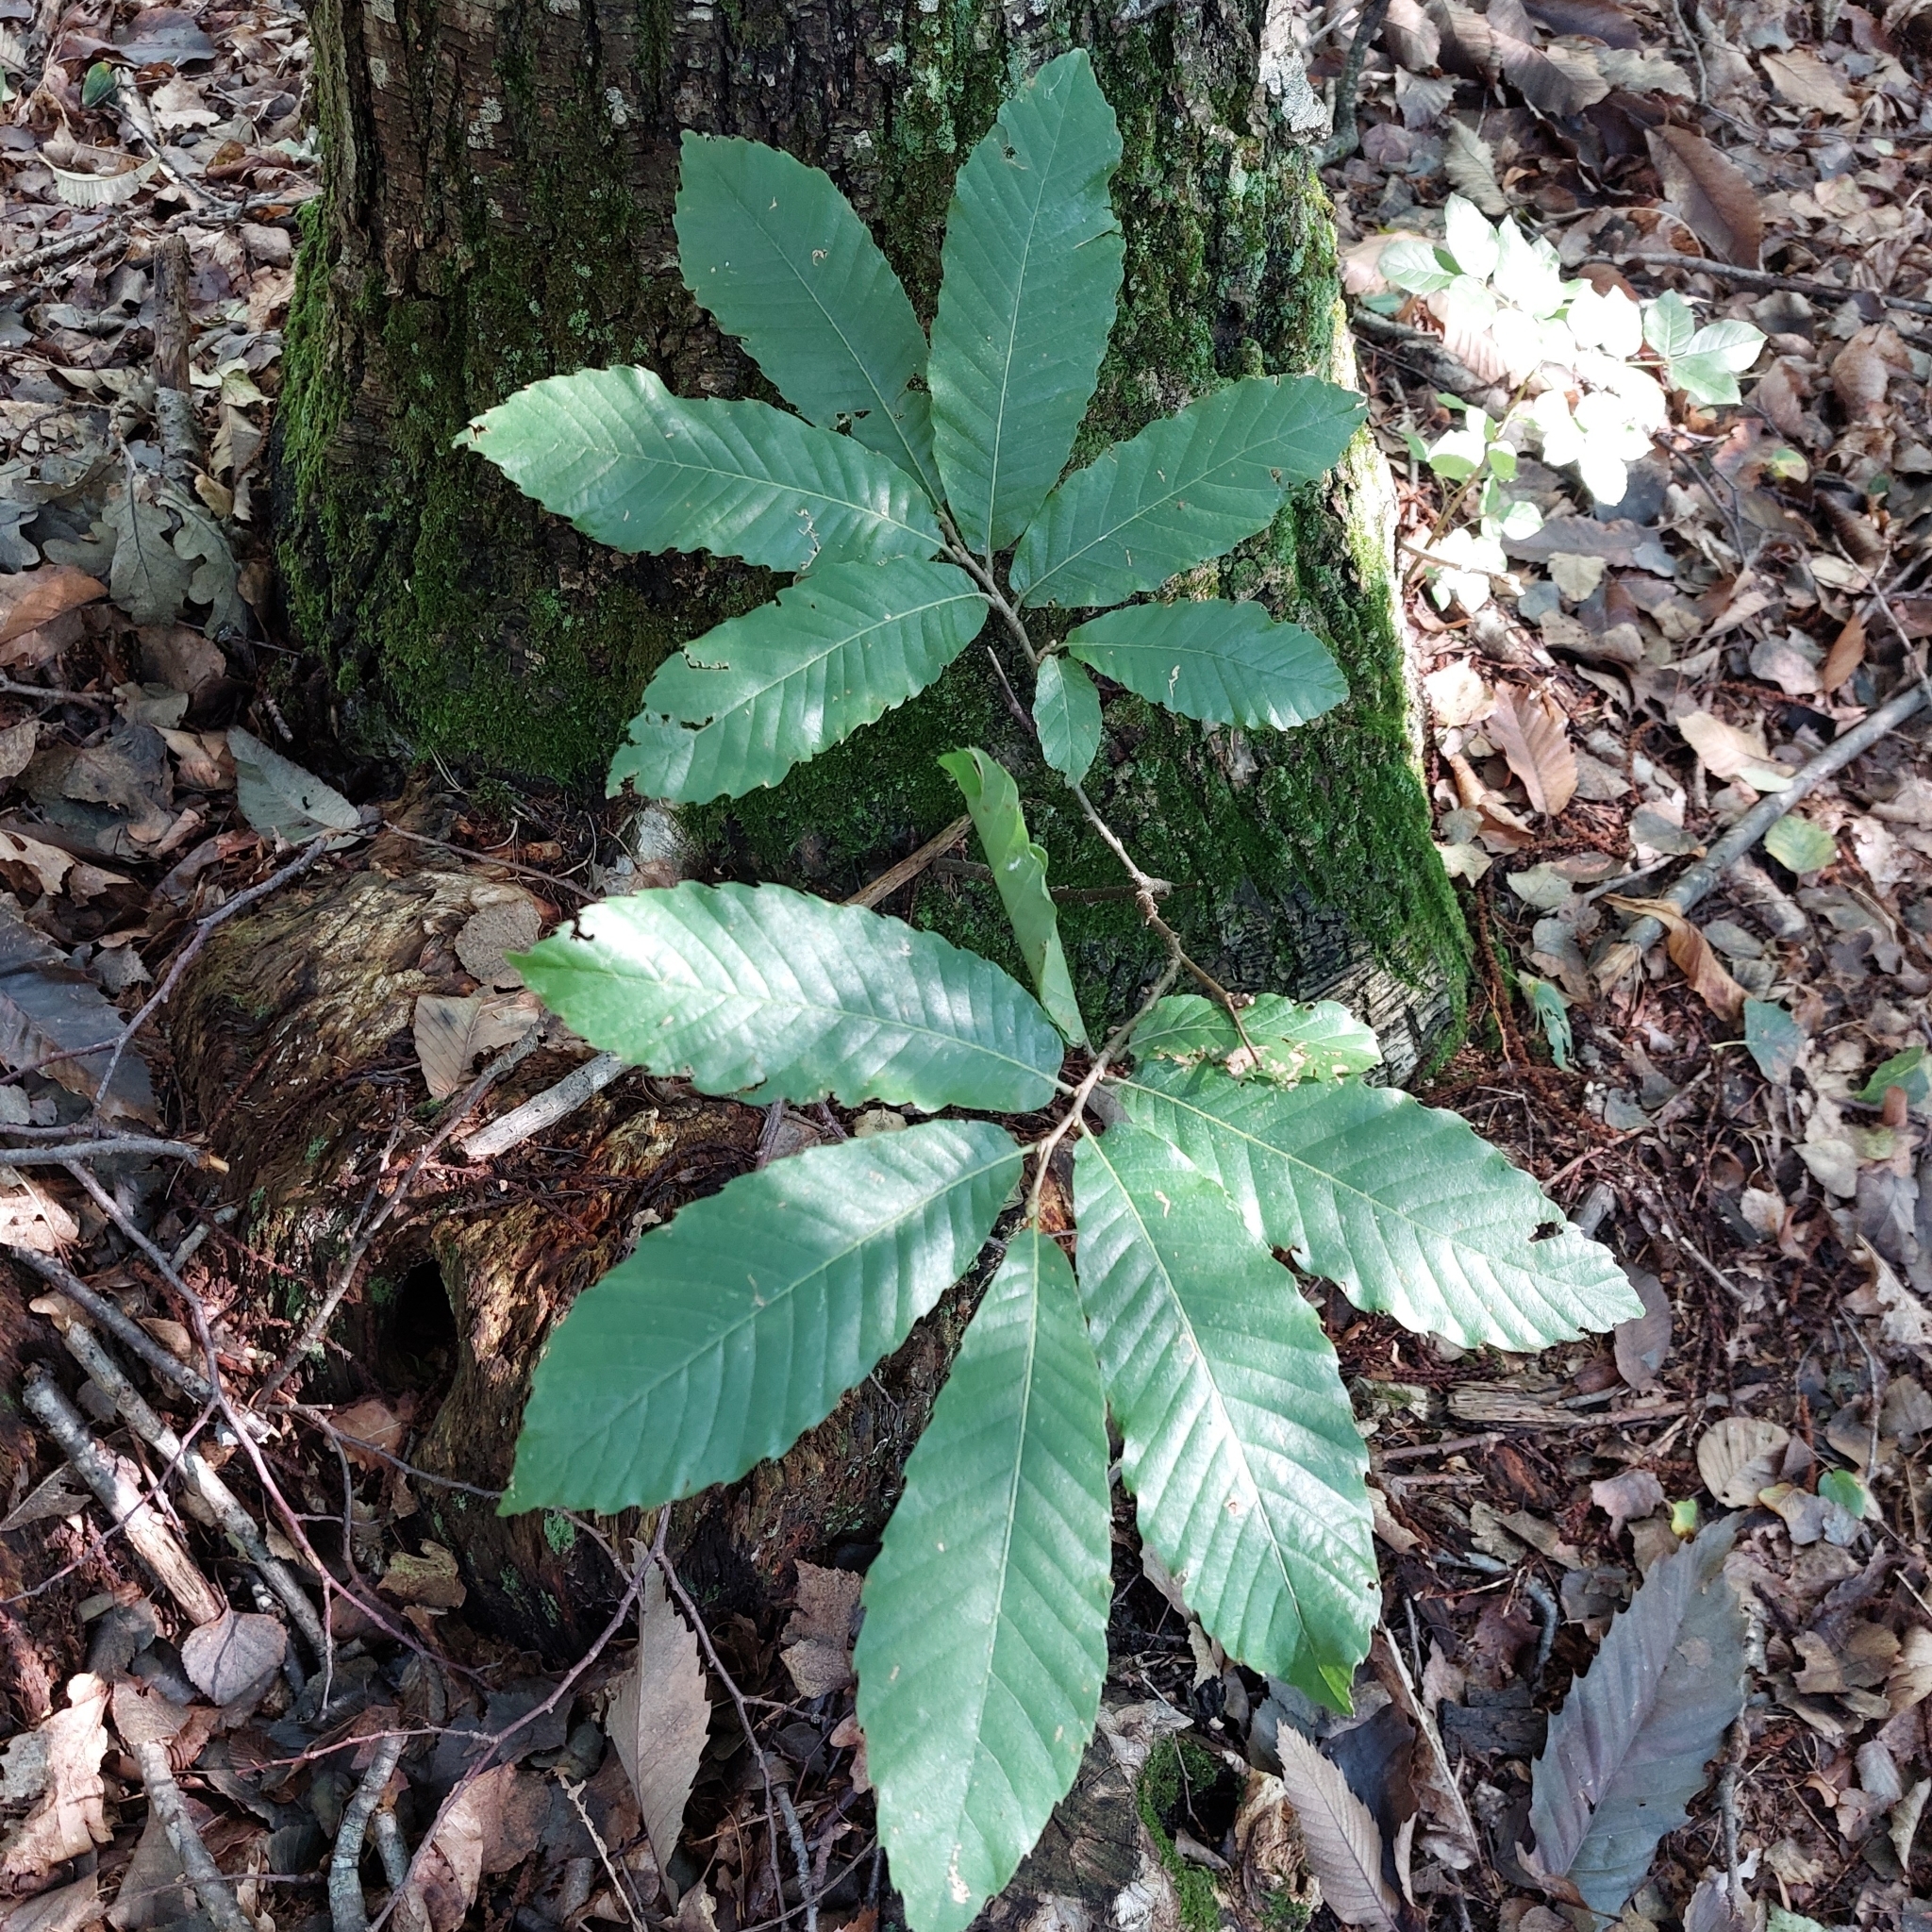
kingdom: Plantae
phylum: Tracheophyta
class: Magnoliopsida
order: Fagales
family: Fagaceae
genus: Castanea
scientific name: Castanea sativa
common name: Sweet chestnut
